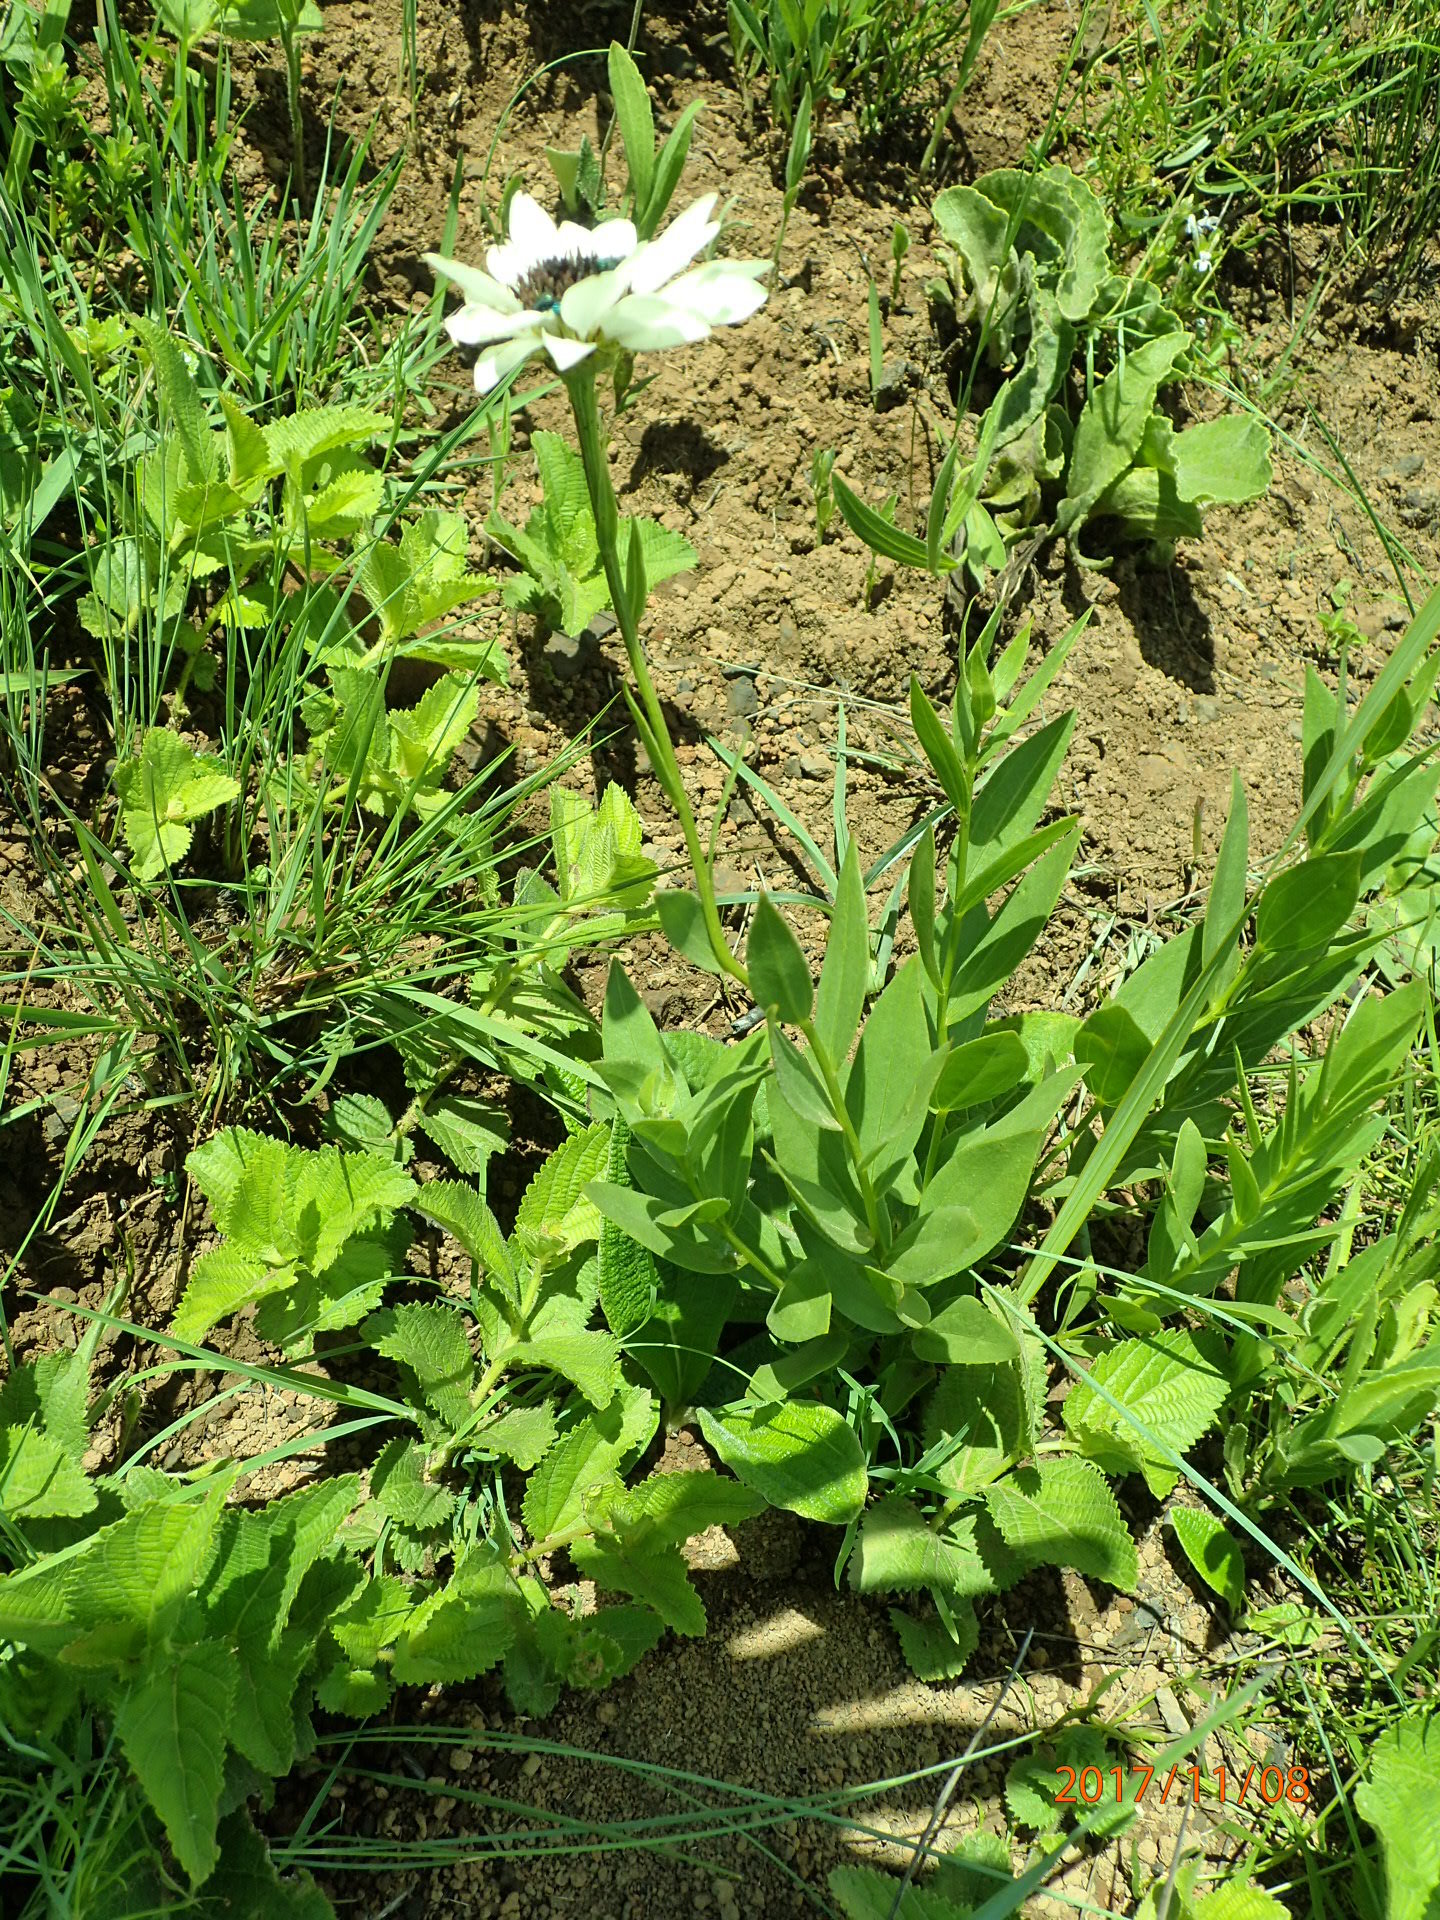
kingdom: Plantae
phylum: Tracheophyta
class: Magnoliopsida
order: Asterales
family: Asteraceae
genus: Callilepis
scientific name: Callilepis laureola
